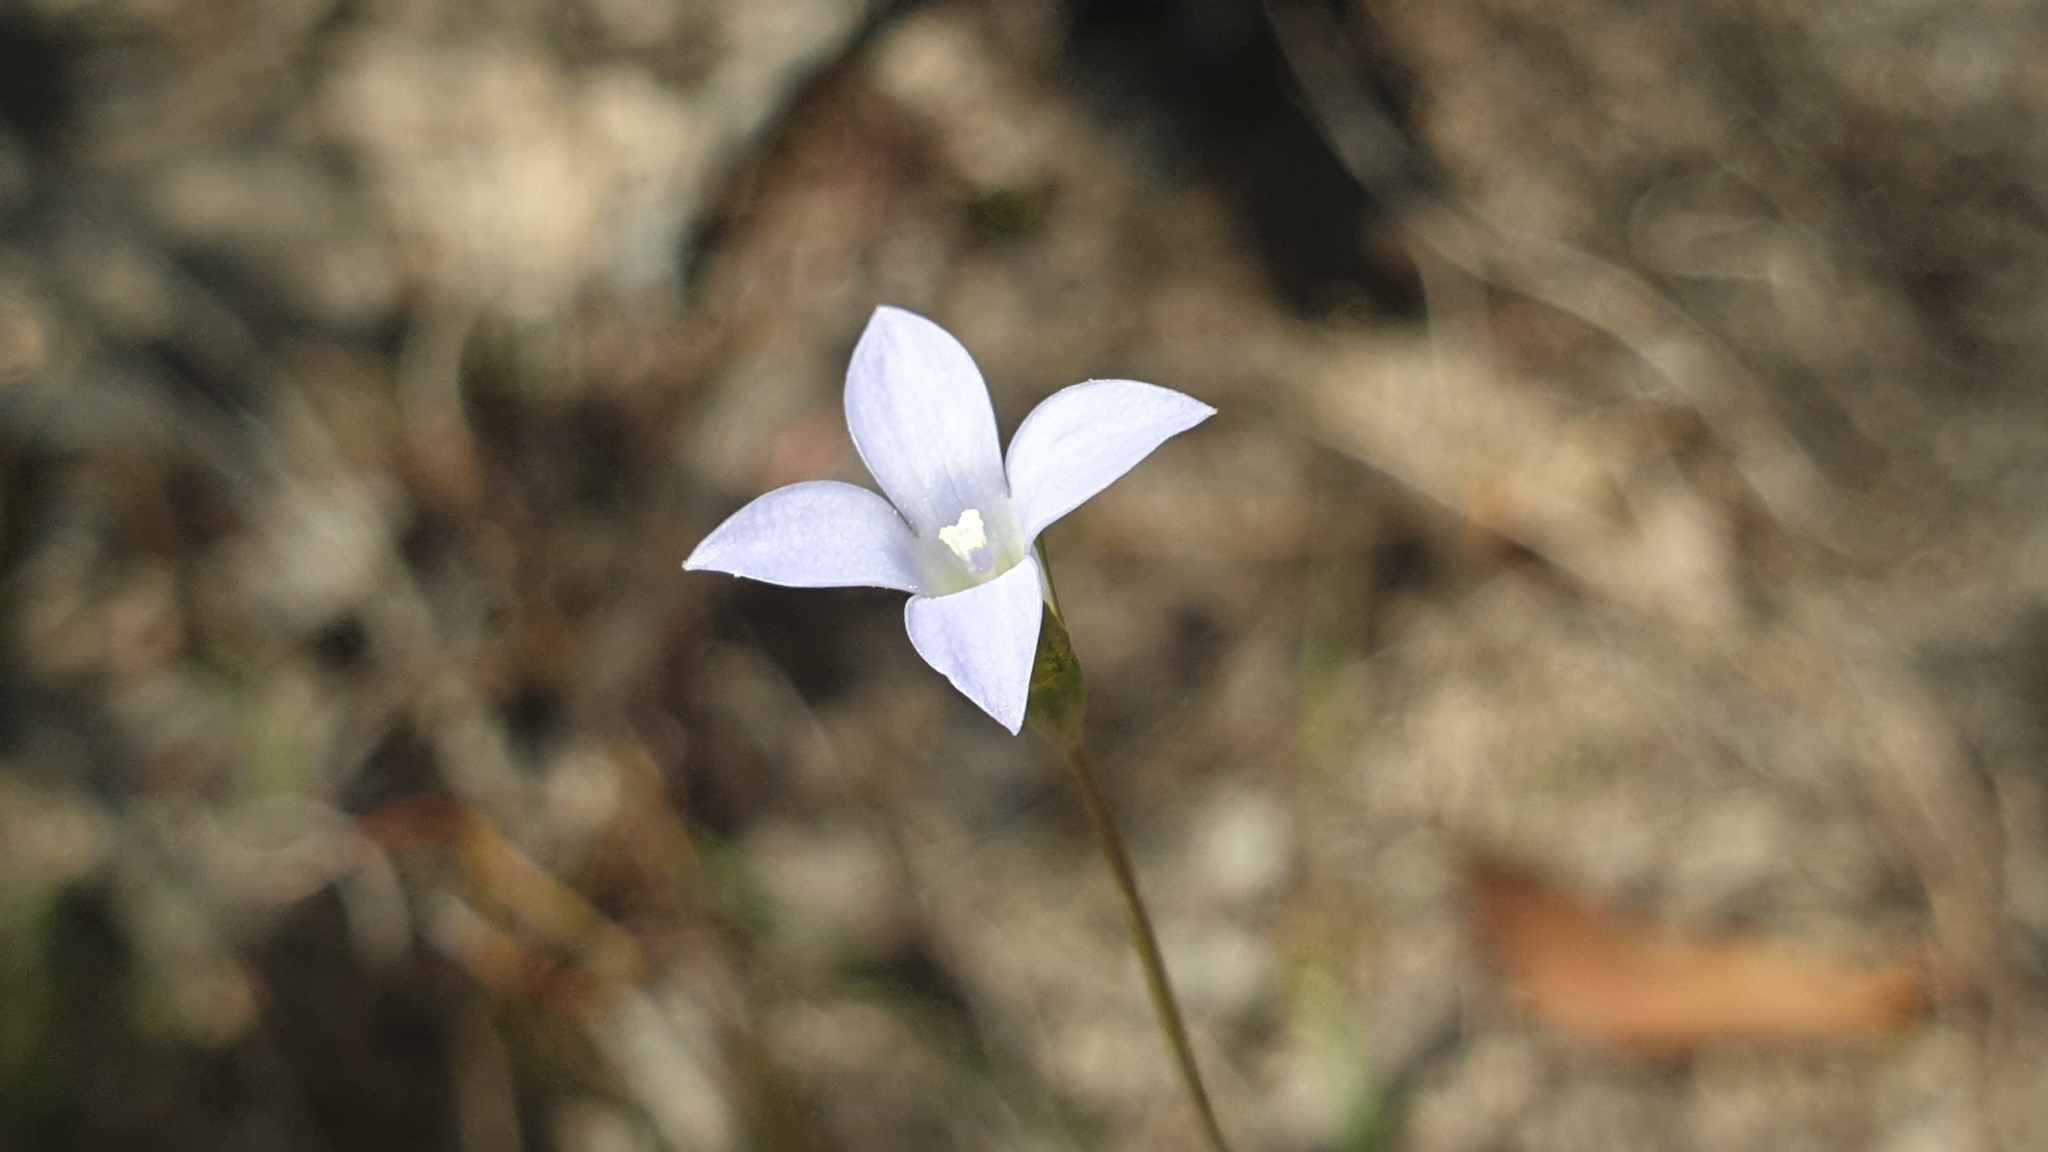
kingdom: Plantae
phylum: Tracheophyta
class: Magnoliopsida
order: Asterales
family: Campanulaceae
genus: Wahlenbergia
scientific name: Wahlenbergia gracilenta
